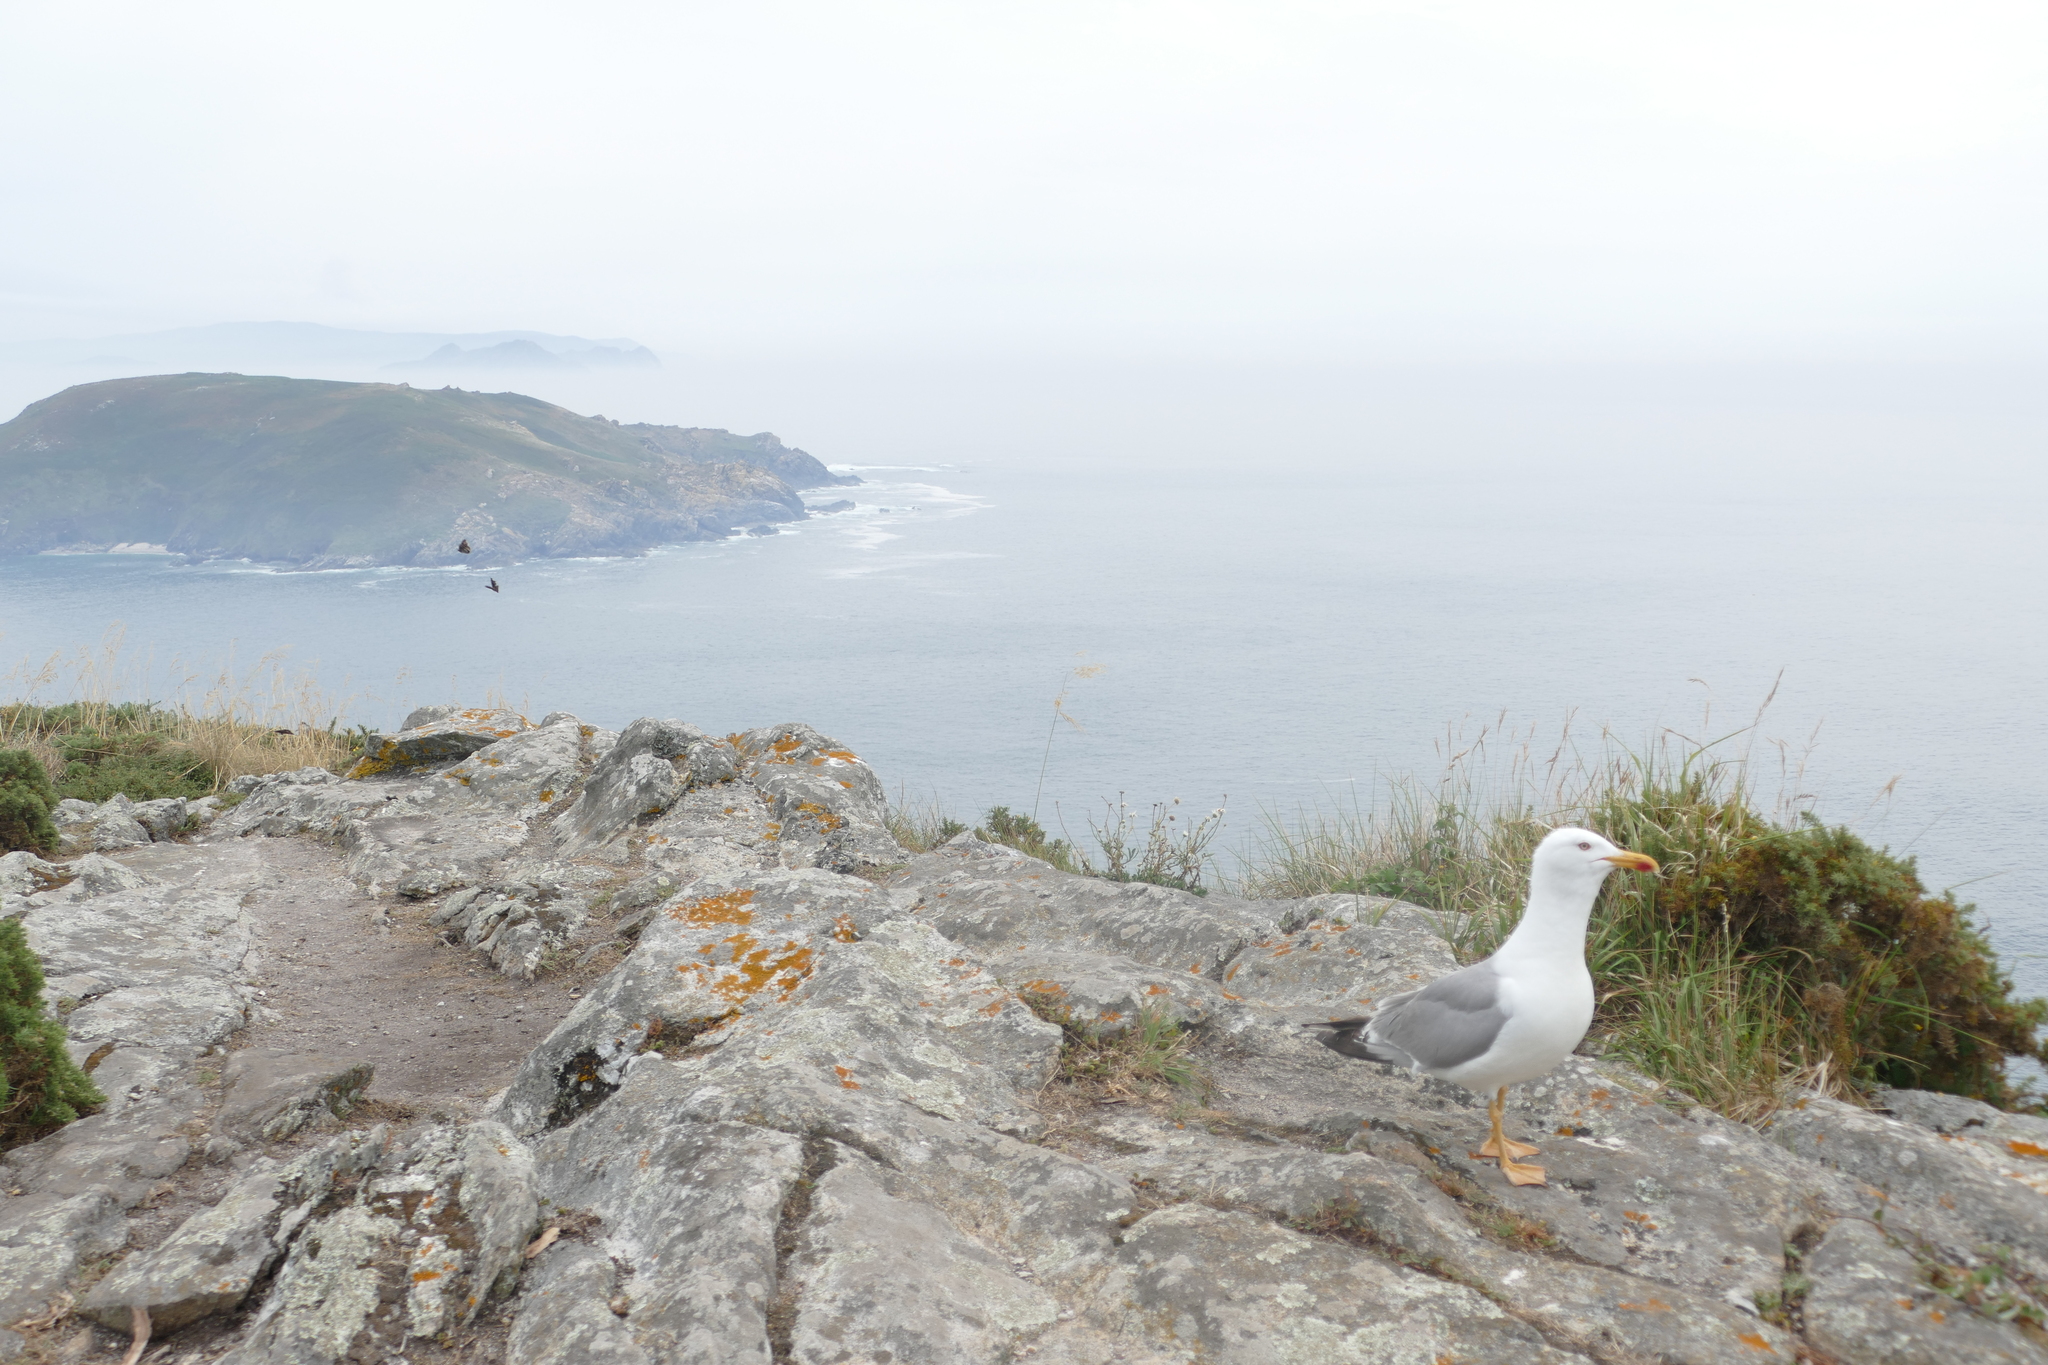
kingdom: Animalia
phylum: Chordata
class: Aves
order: Charadriiformes
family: Laridae
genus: Larus
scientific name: Larus michahellis
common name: Yellow-legged gull
